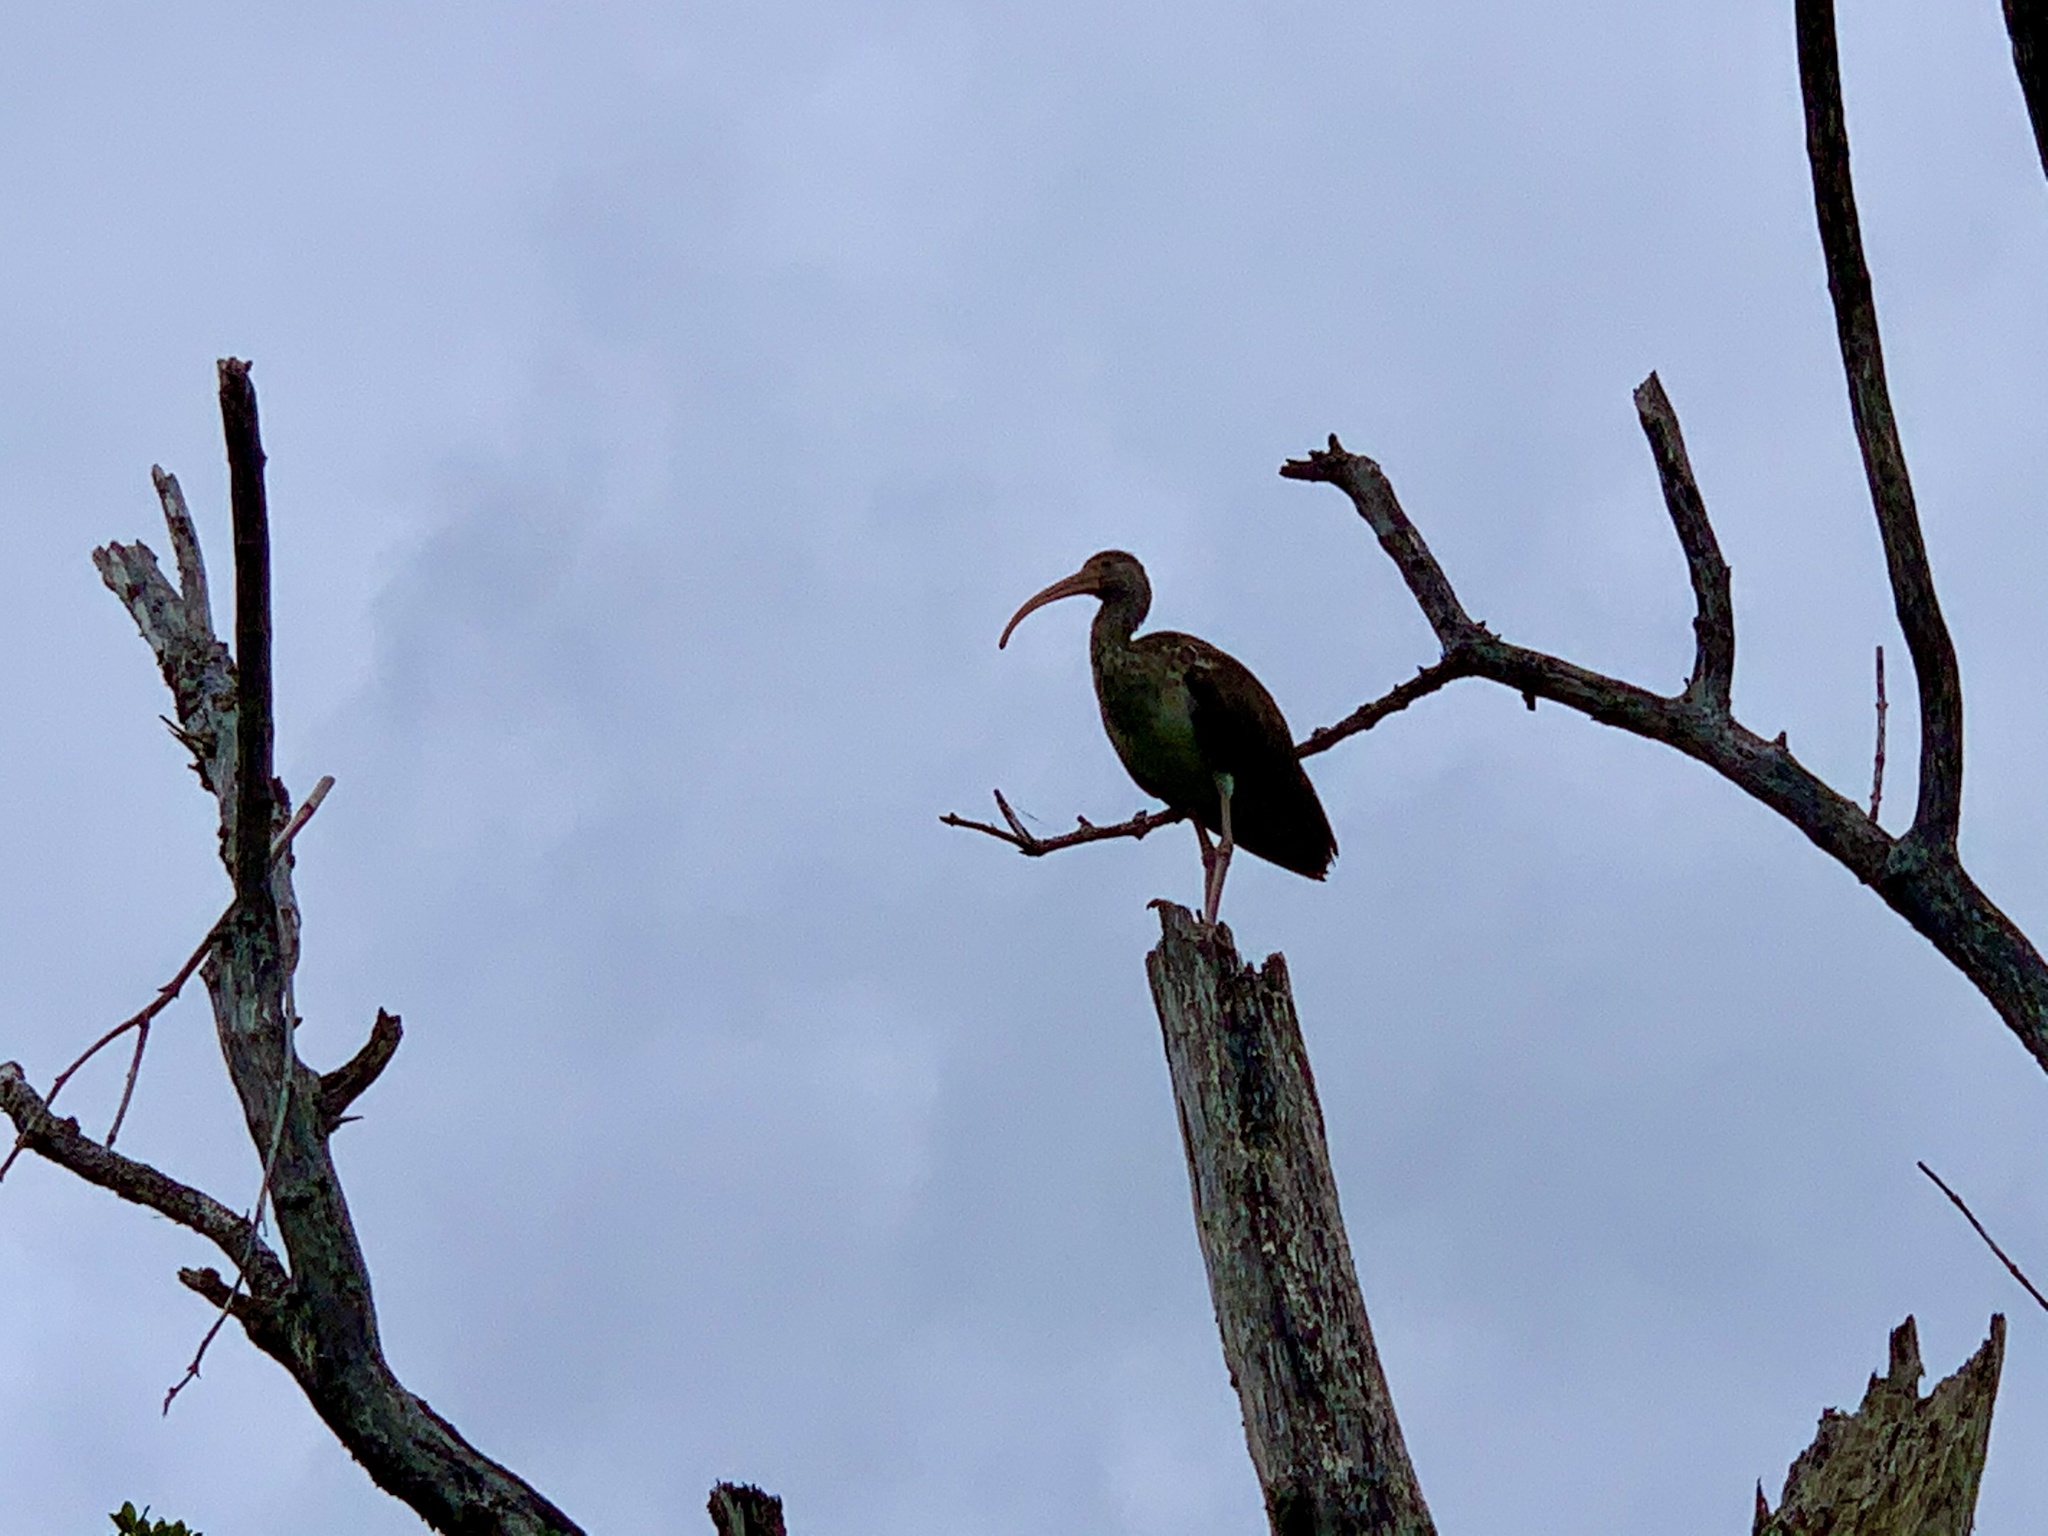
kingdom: Animalia
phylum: Chordata
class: Aves
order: Pelecaniformes
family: Threskiornithidae
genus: Eudocimus
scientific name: Eudocimus albus
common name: White ibis
